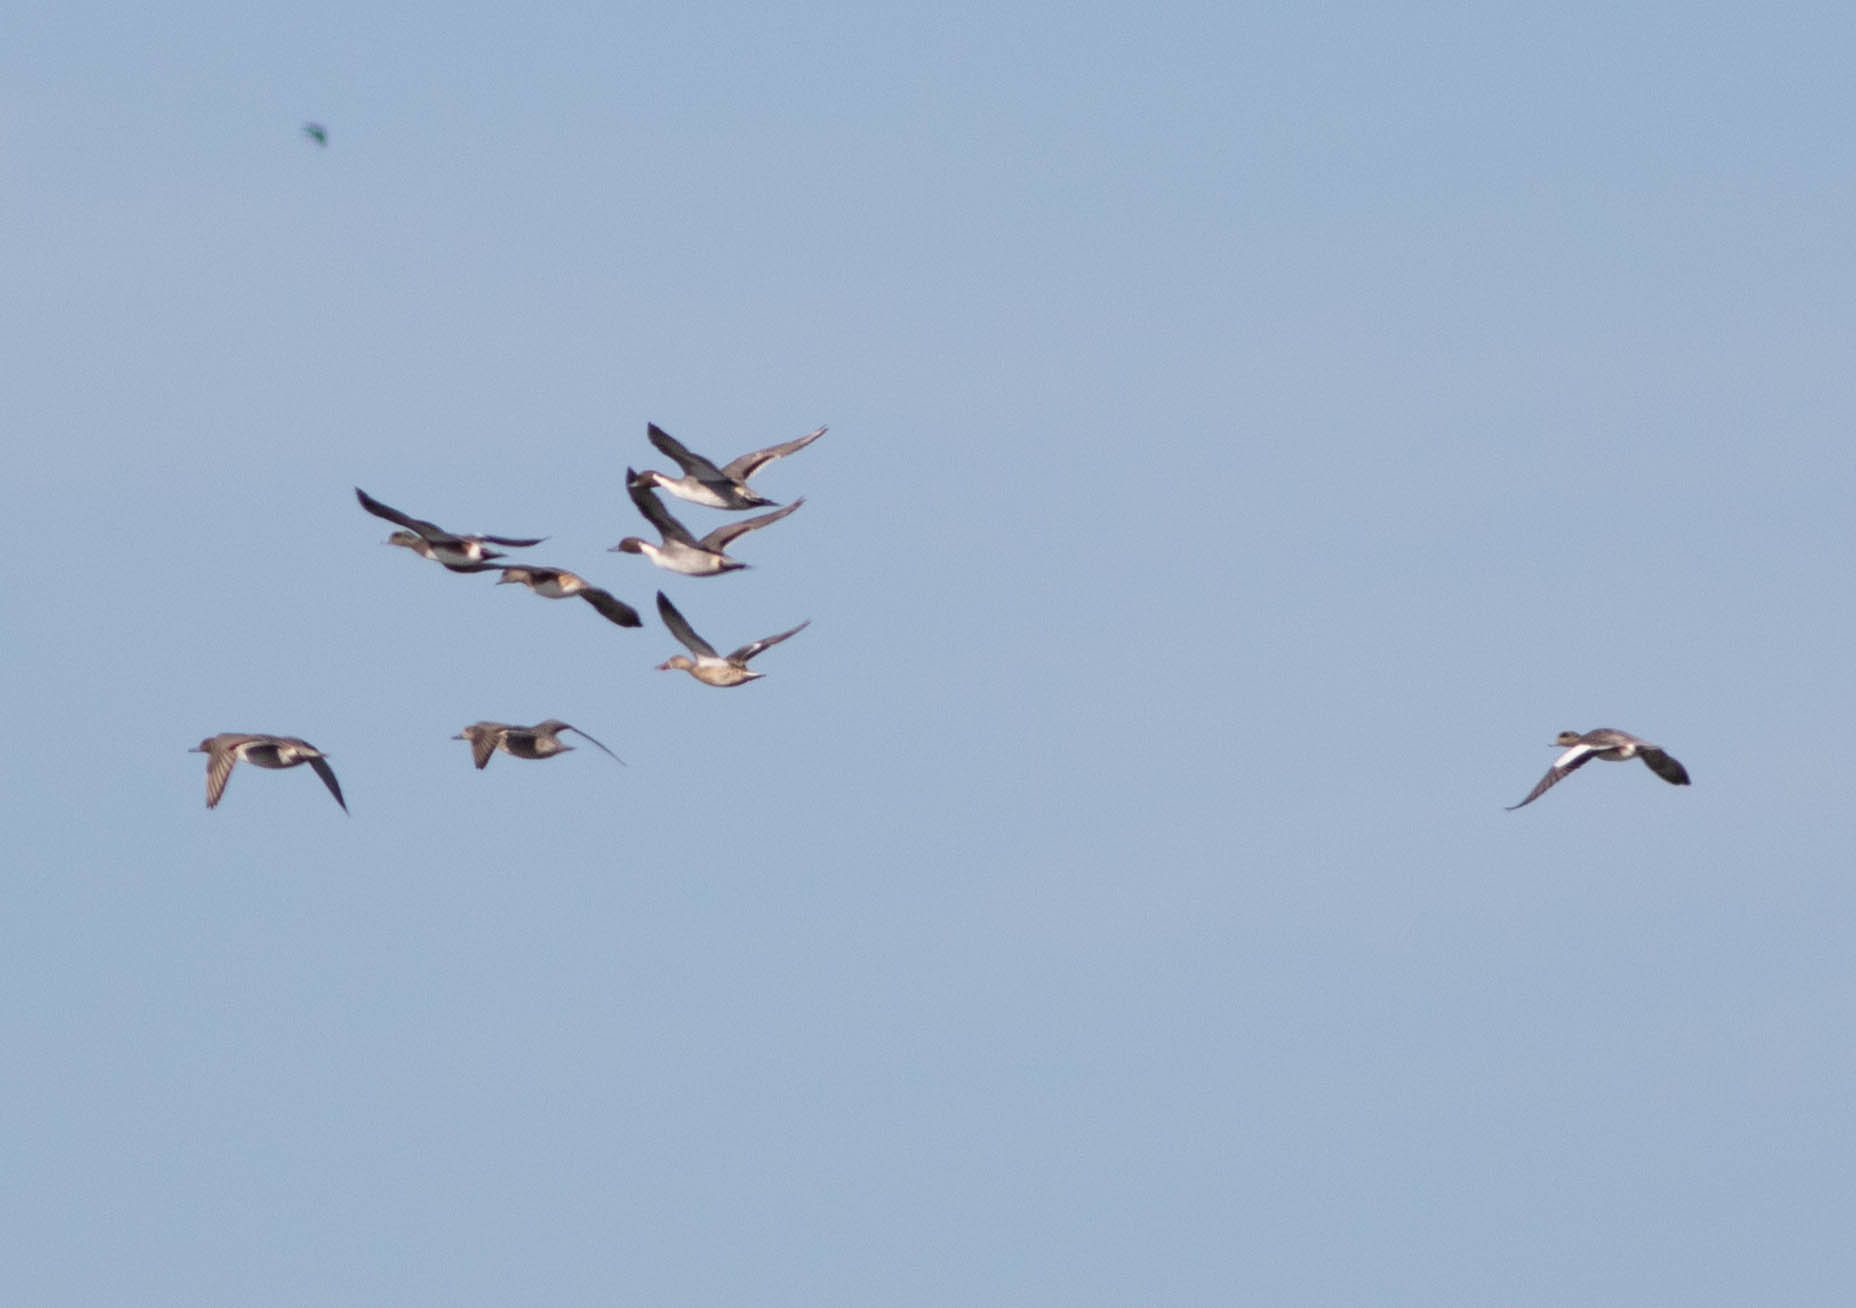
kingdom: Animalia
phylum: Chordata
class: Aves
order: Anseriformes
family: Anatidae
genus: Mareca
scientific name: Mareca americana
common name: American wigeon
